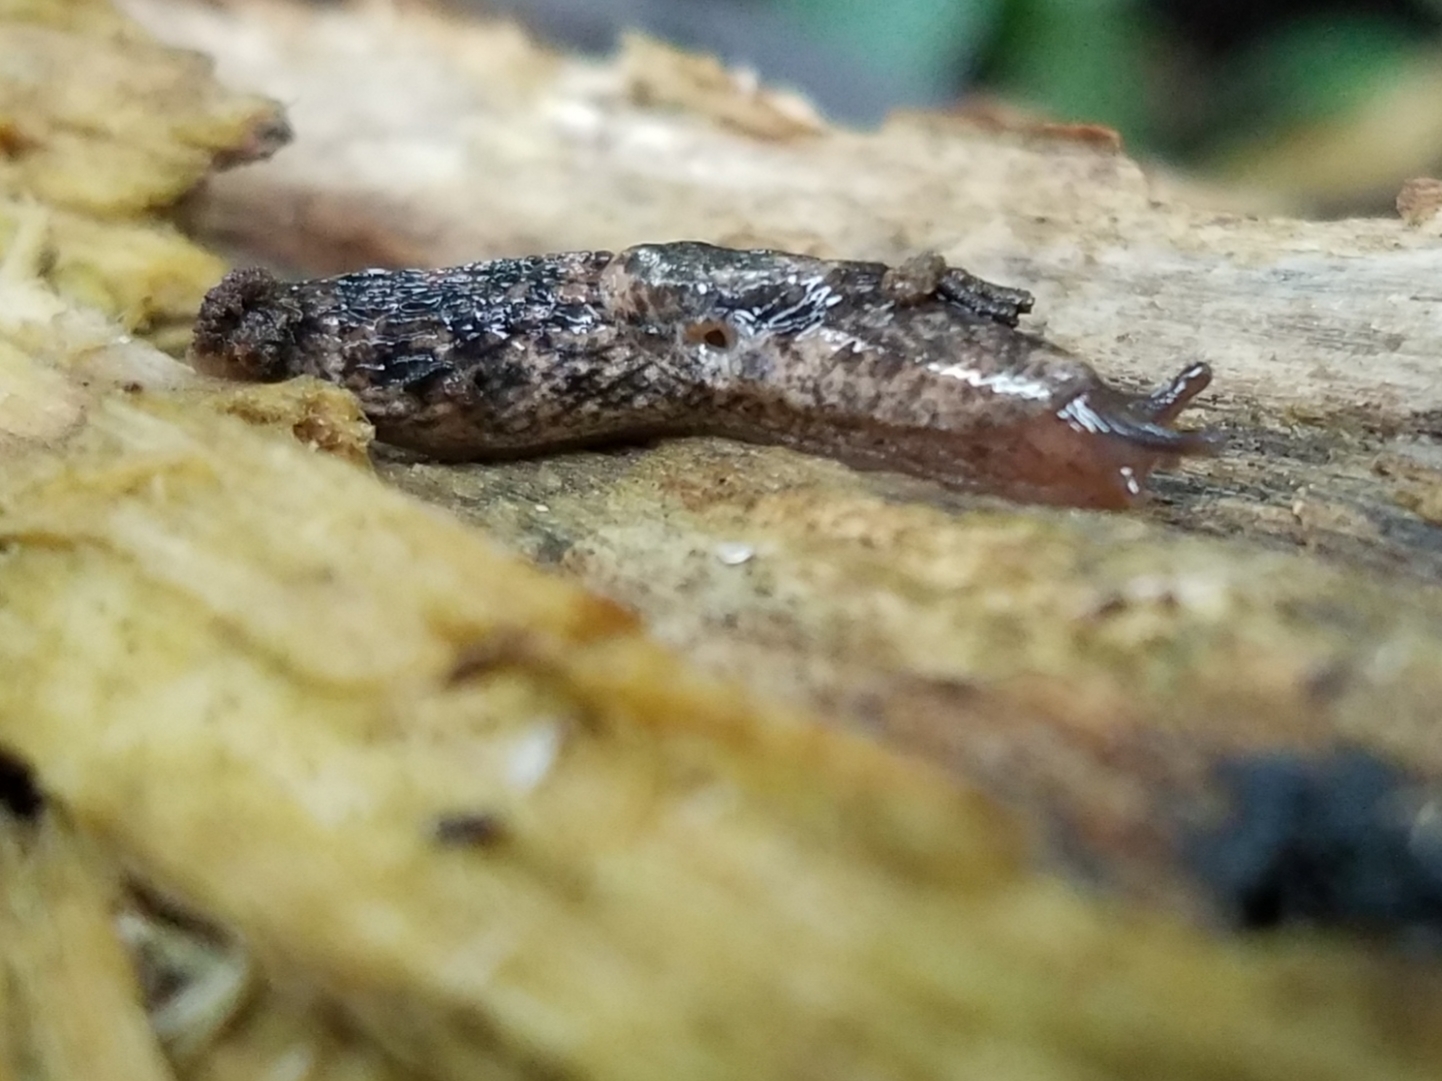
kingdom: Animalia
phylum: Mollusca
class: Gastropoda
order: Stylommatophora
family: Agriolimacidae
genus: Deroceras
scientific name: Deroceras reticulatum
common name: Gray field slug
